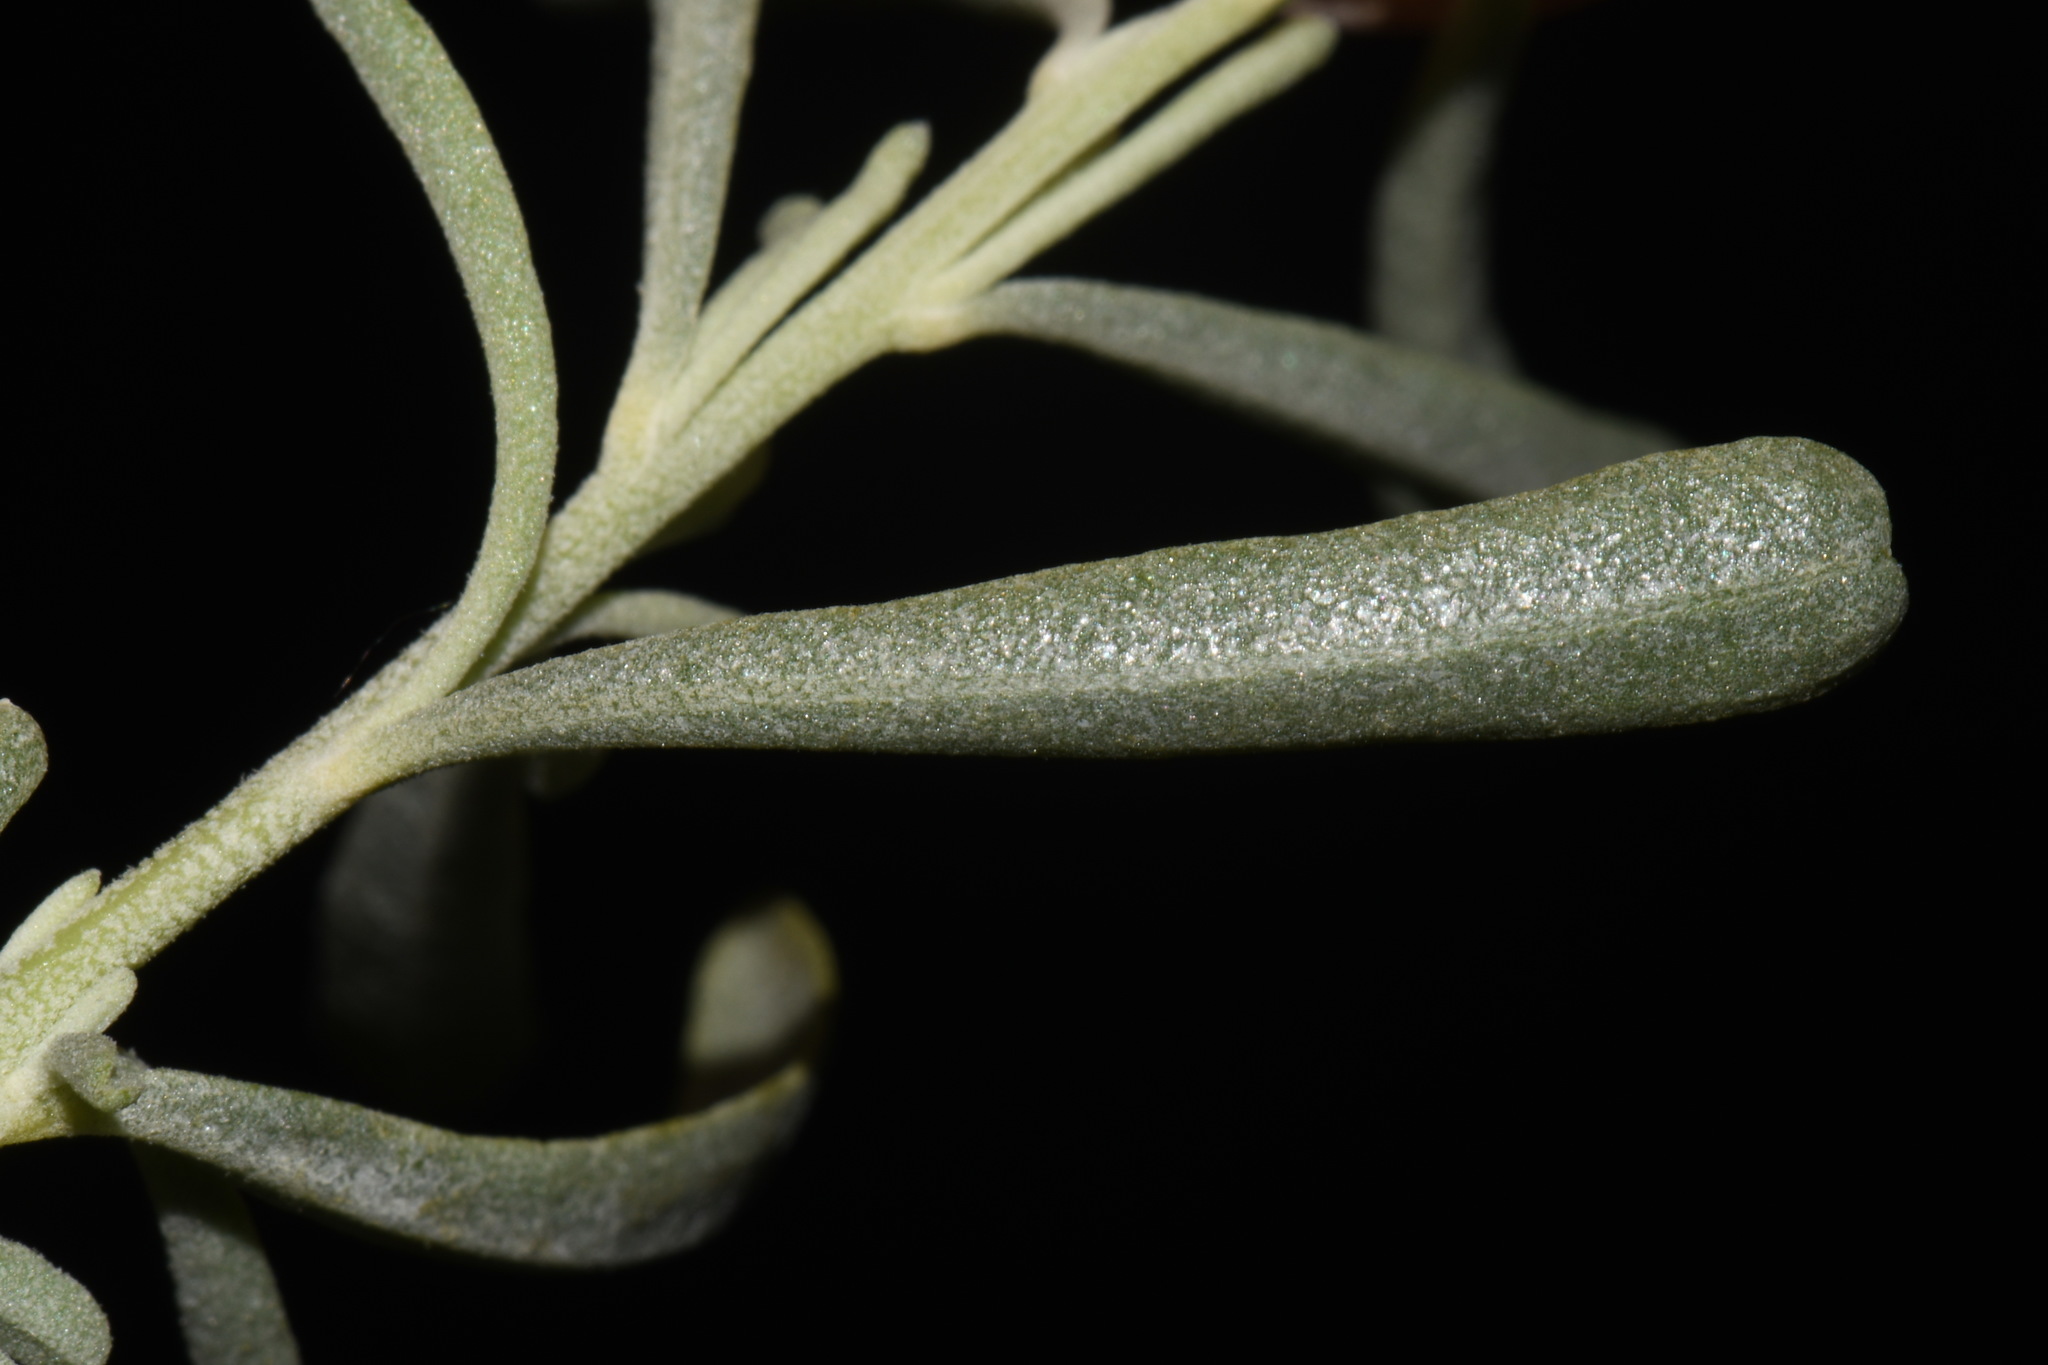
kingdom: Plantae
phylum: Tracheophyta
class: Magnoliopsida
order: Caryophyllales
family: Amaranthaceae
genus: Atriplex
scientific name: Atriplex canescens
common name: Four-wing saltbush
